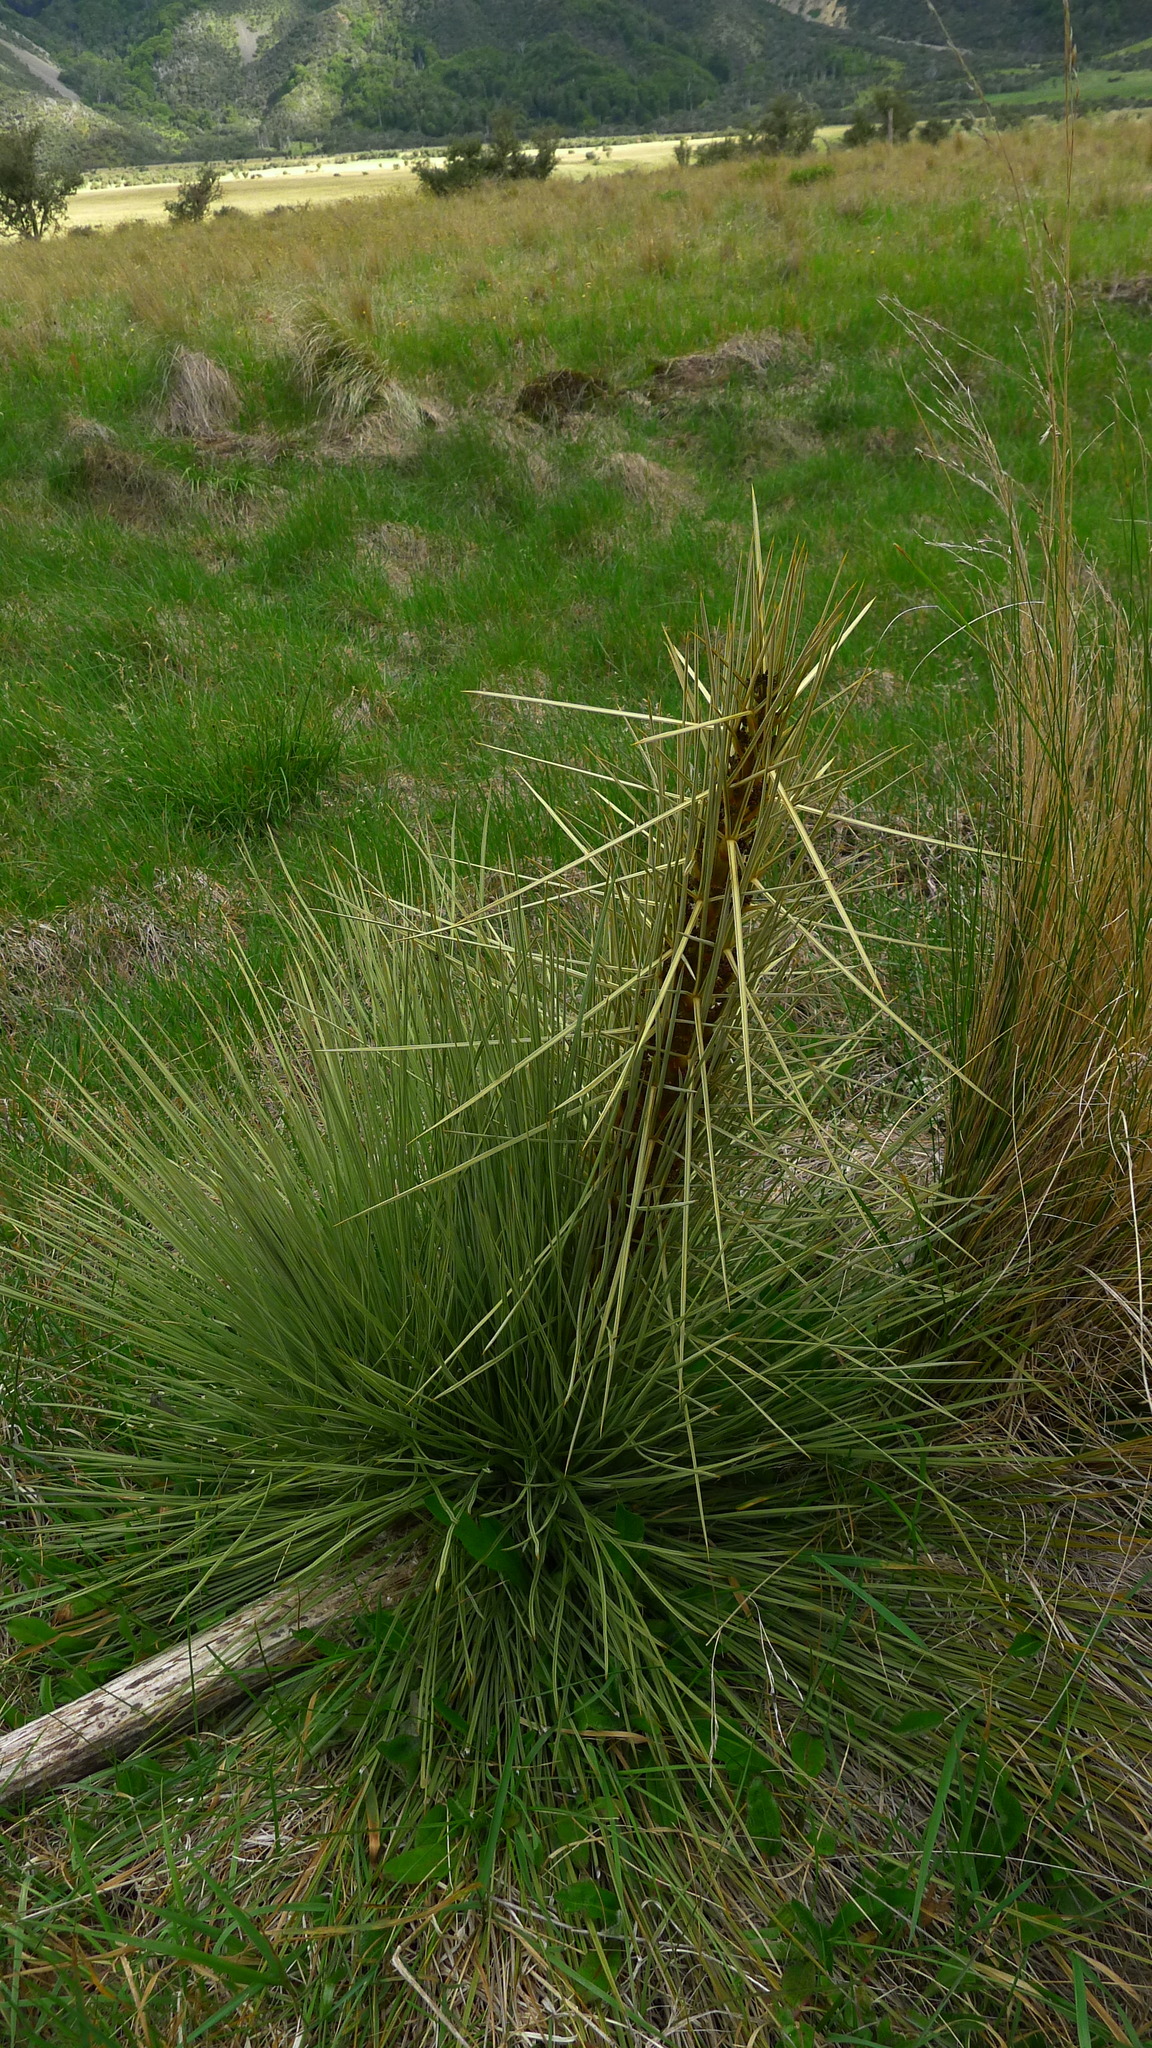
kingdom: Plantae
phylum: Tracheophyta
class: Magnoliopsida
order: Apiales
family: Apiaceae
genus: Aciphylla
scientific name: Aciphylla subflabellata
